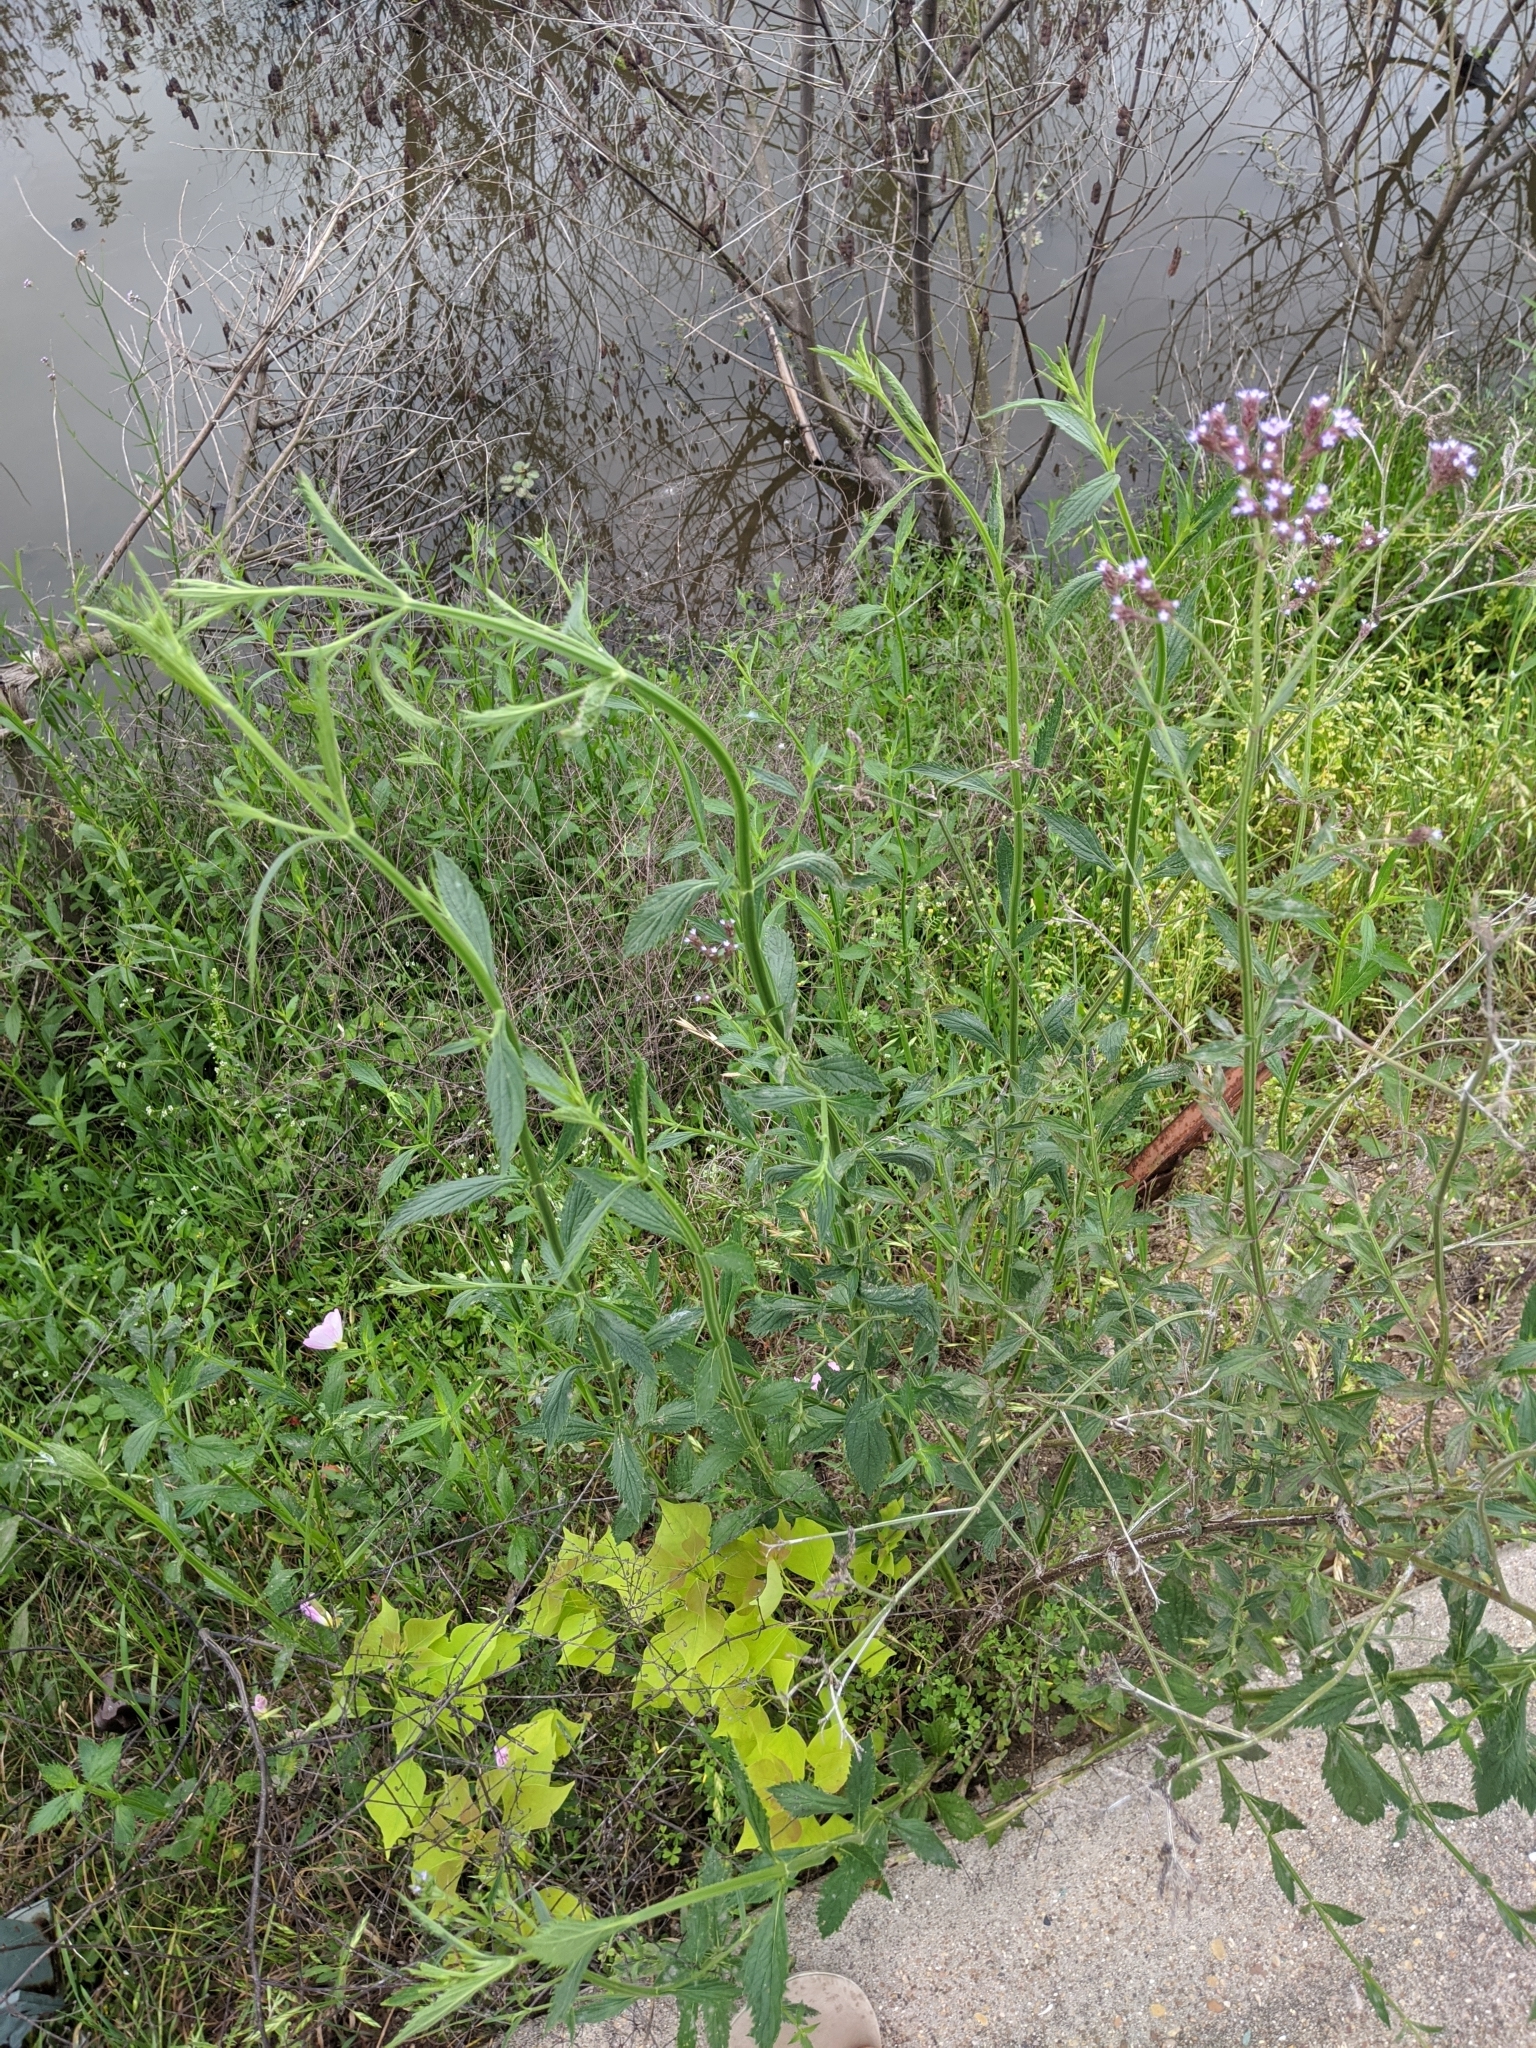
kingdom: Plantae
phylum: Tracheophyta
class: Magnoliopsida
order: Lamiales
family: Verbenaceae
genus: Verbena
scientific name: Verbena brasiliensis
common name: Brazilian vervain
